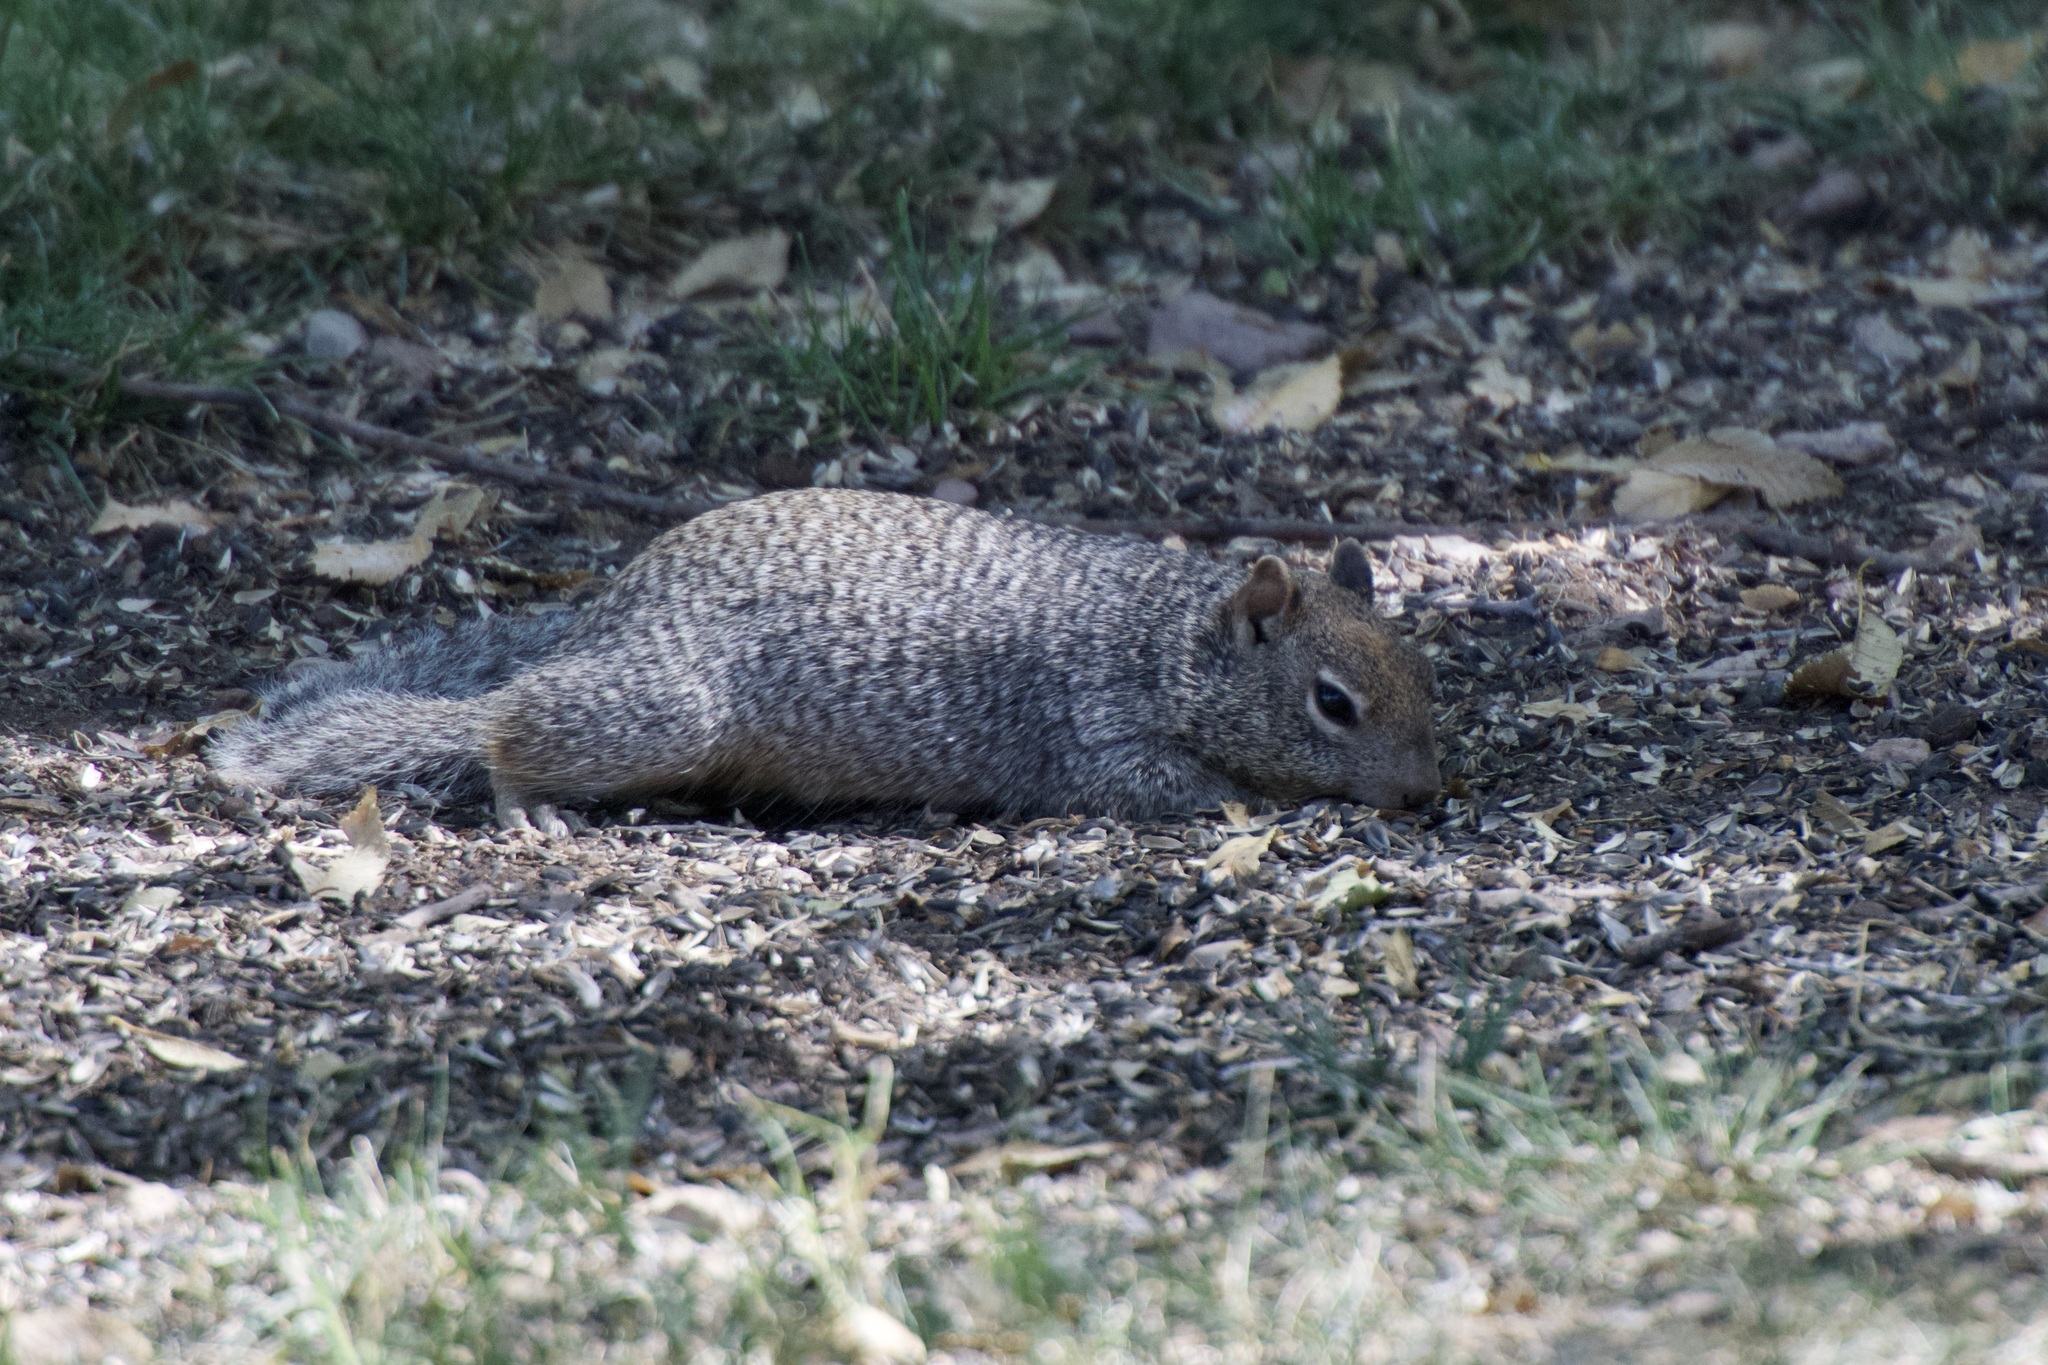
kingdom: Animalia
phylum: Chordata
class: Mammalia
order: Rodentia
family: Sciuridae
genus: Otospermophilus
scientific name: Otospermophilus variegatus
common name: Rock squirrel
